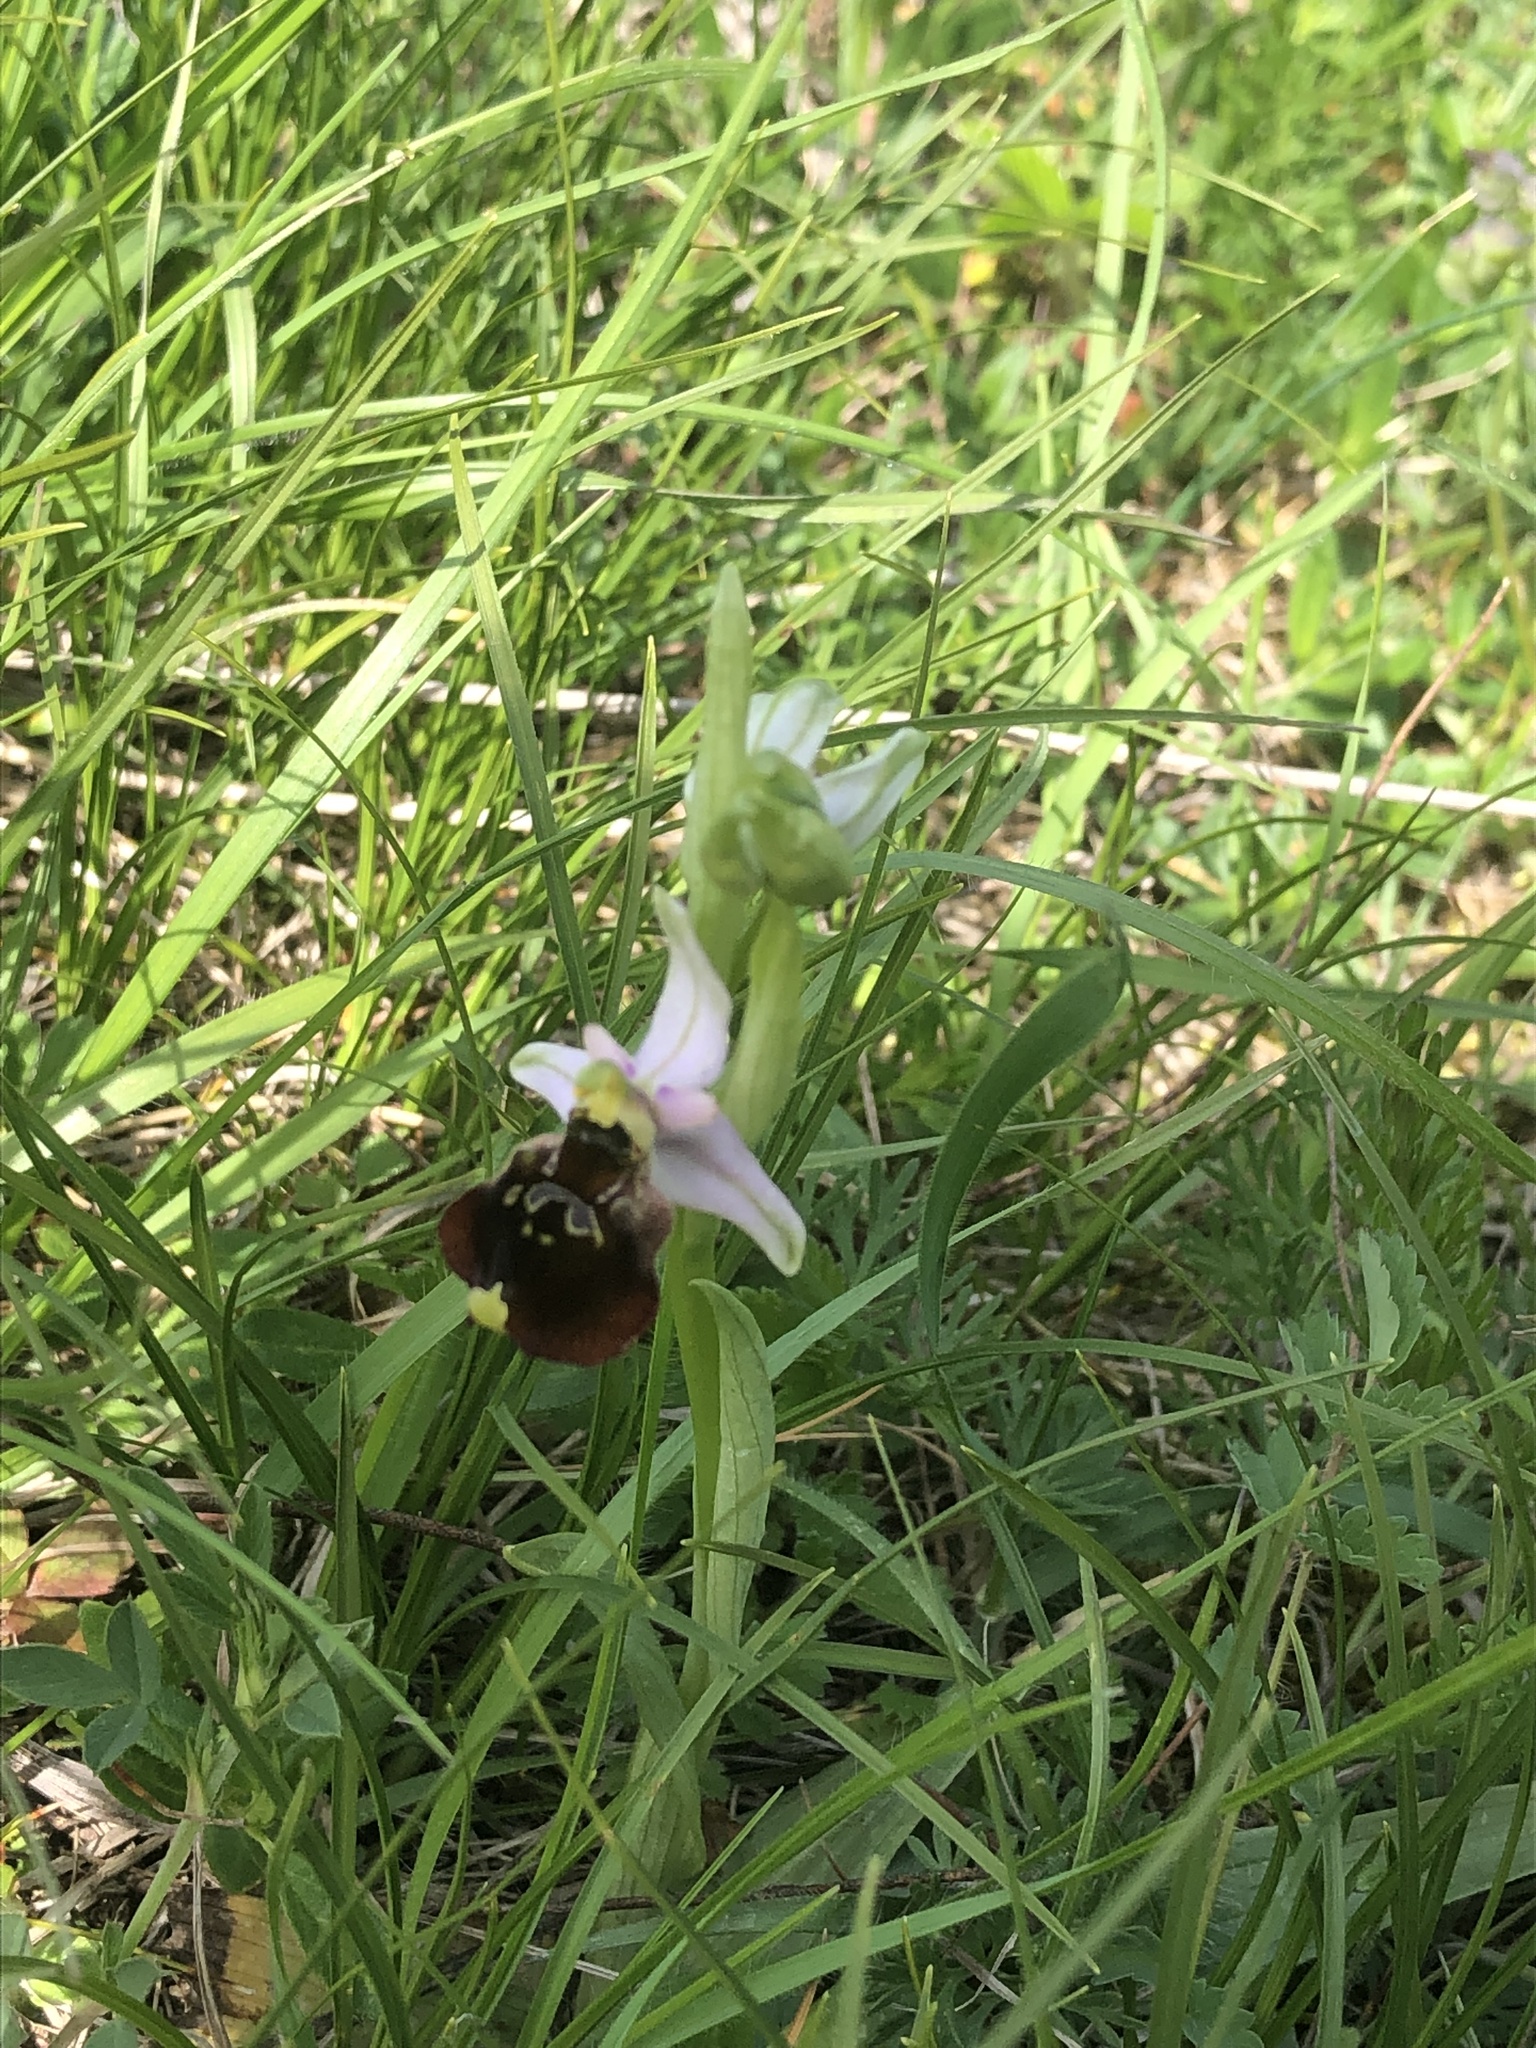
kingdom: Plantae
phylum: Tracheophyta
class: Liliopsida
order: Asparagales
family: Orchidaceae
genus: Ophrys
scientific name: Ophrys holosericea
